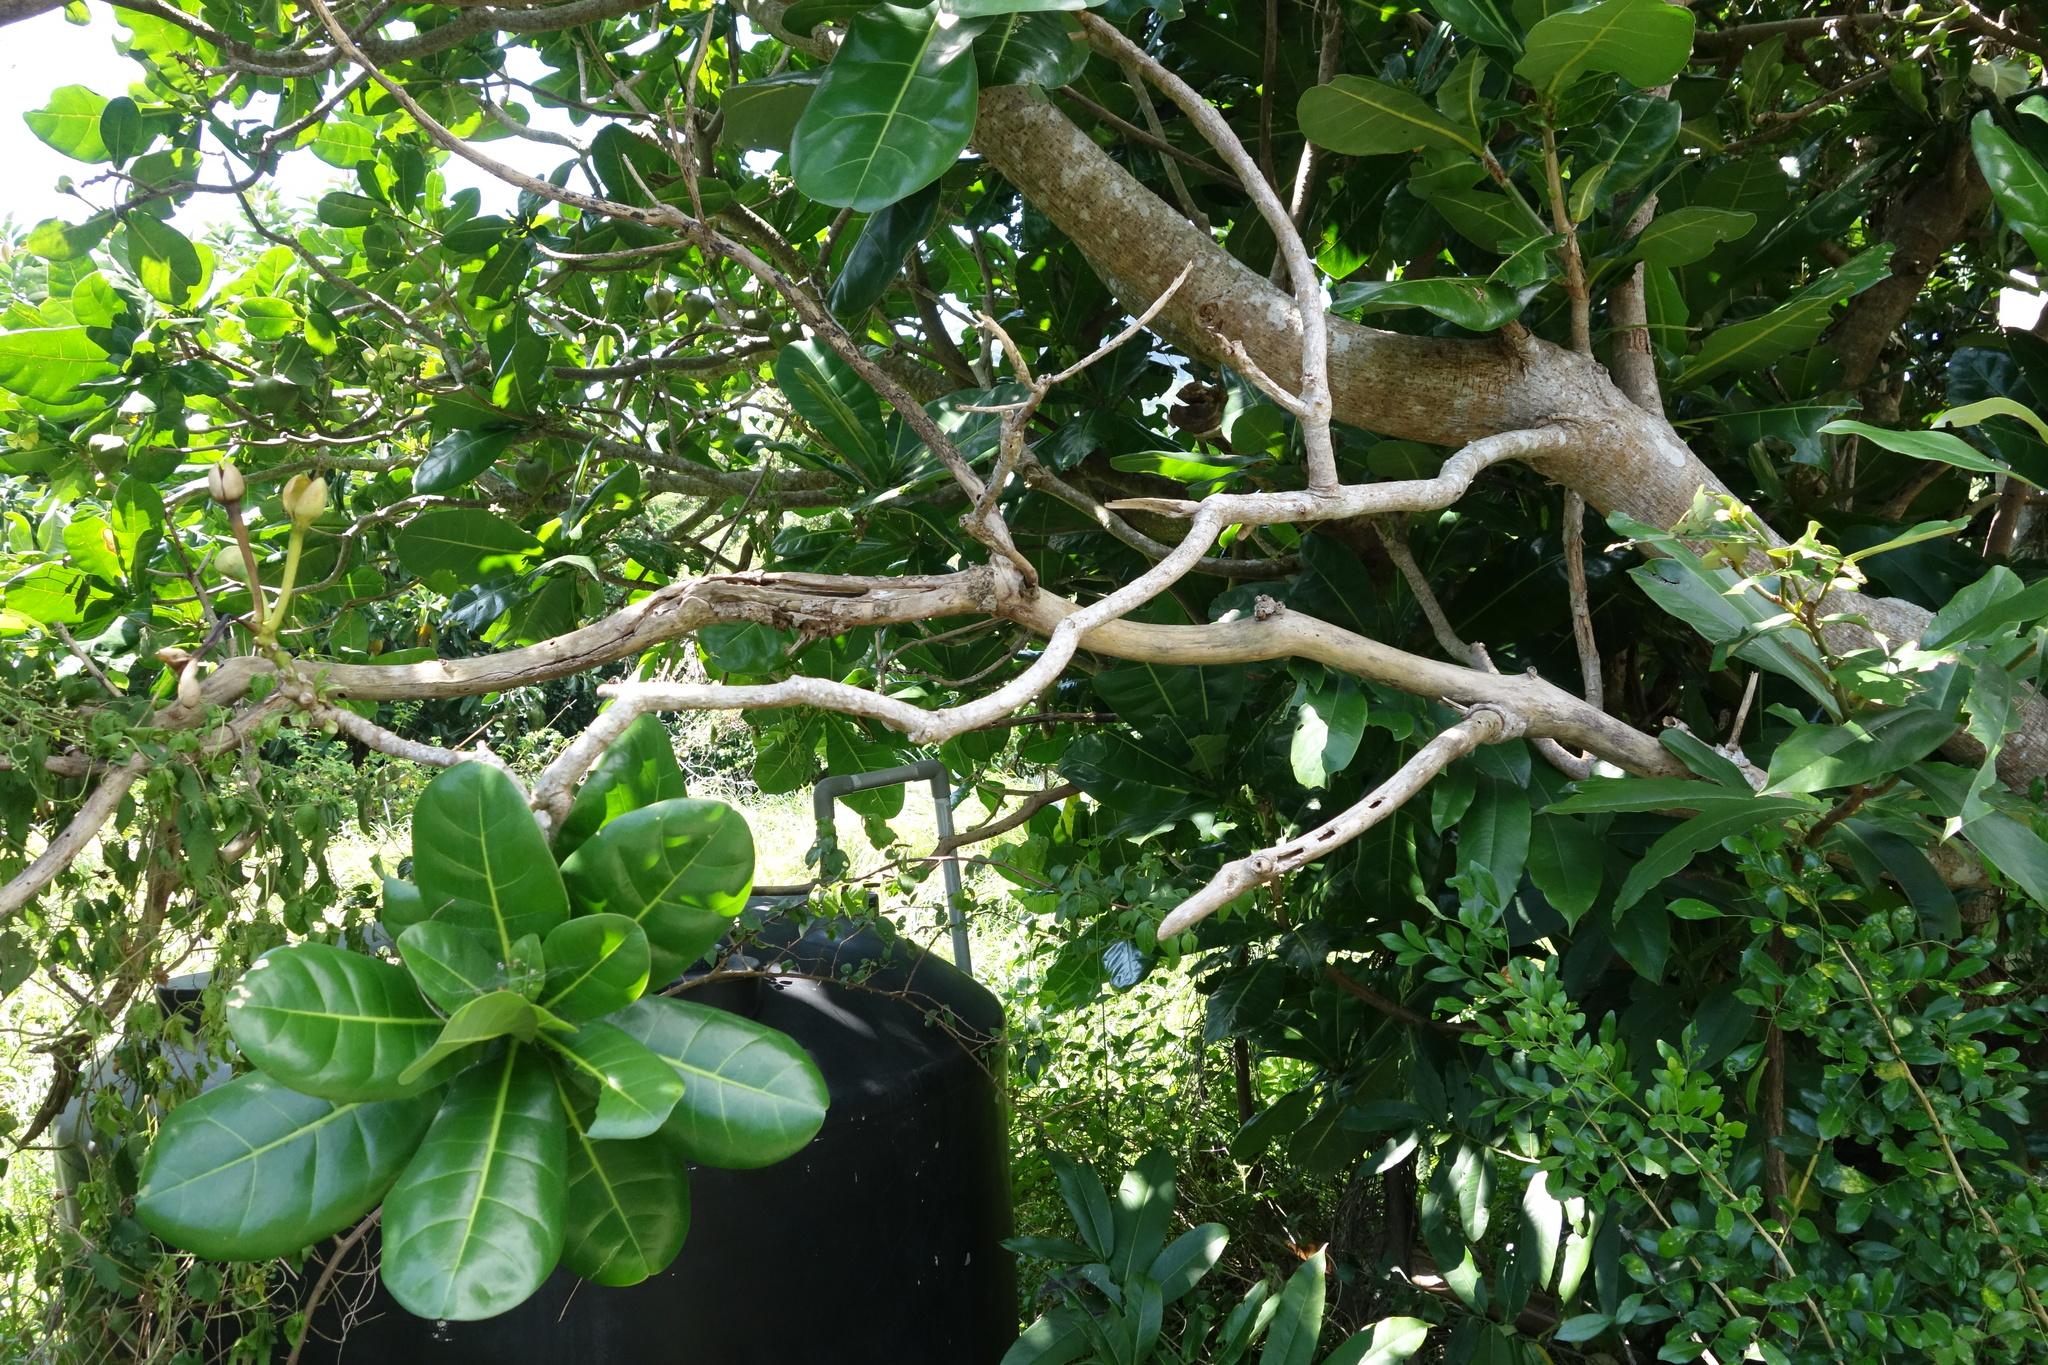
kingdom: Plantae
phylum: Tracheophyta
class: Magnoliopsida
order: Ericales
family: Lecythidaceae
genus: Barringtonia
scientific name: Barringtonia asiatica
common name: Mango-pine
